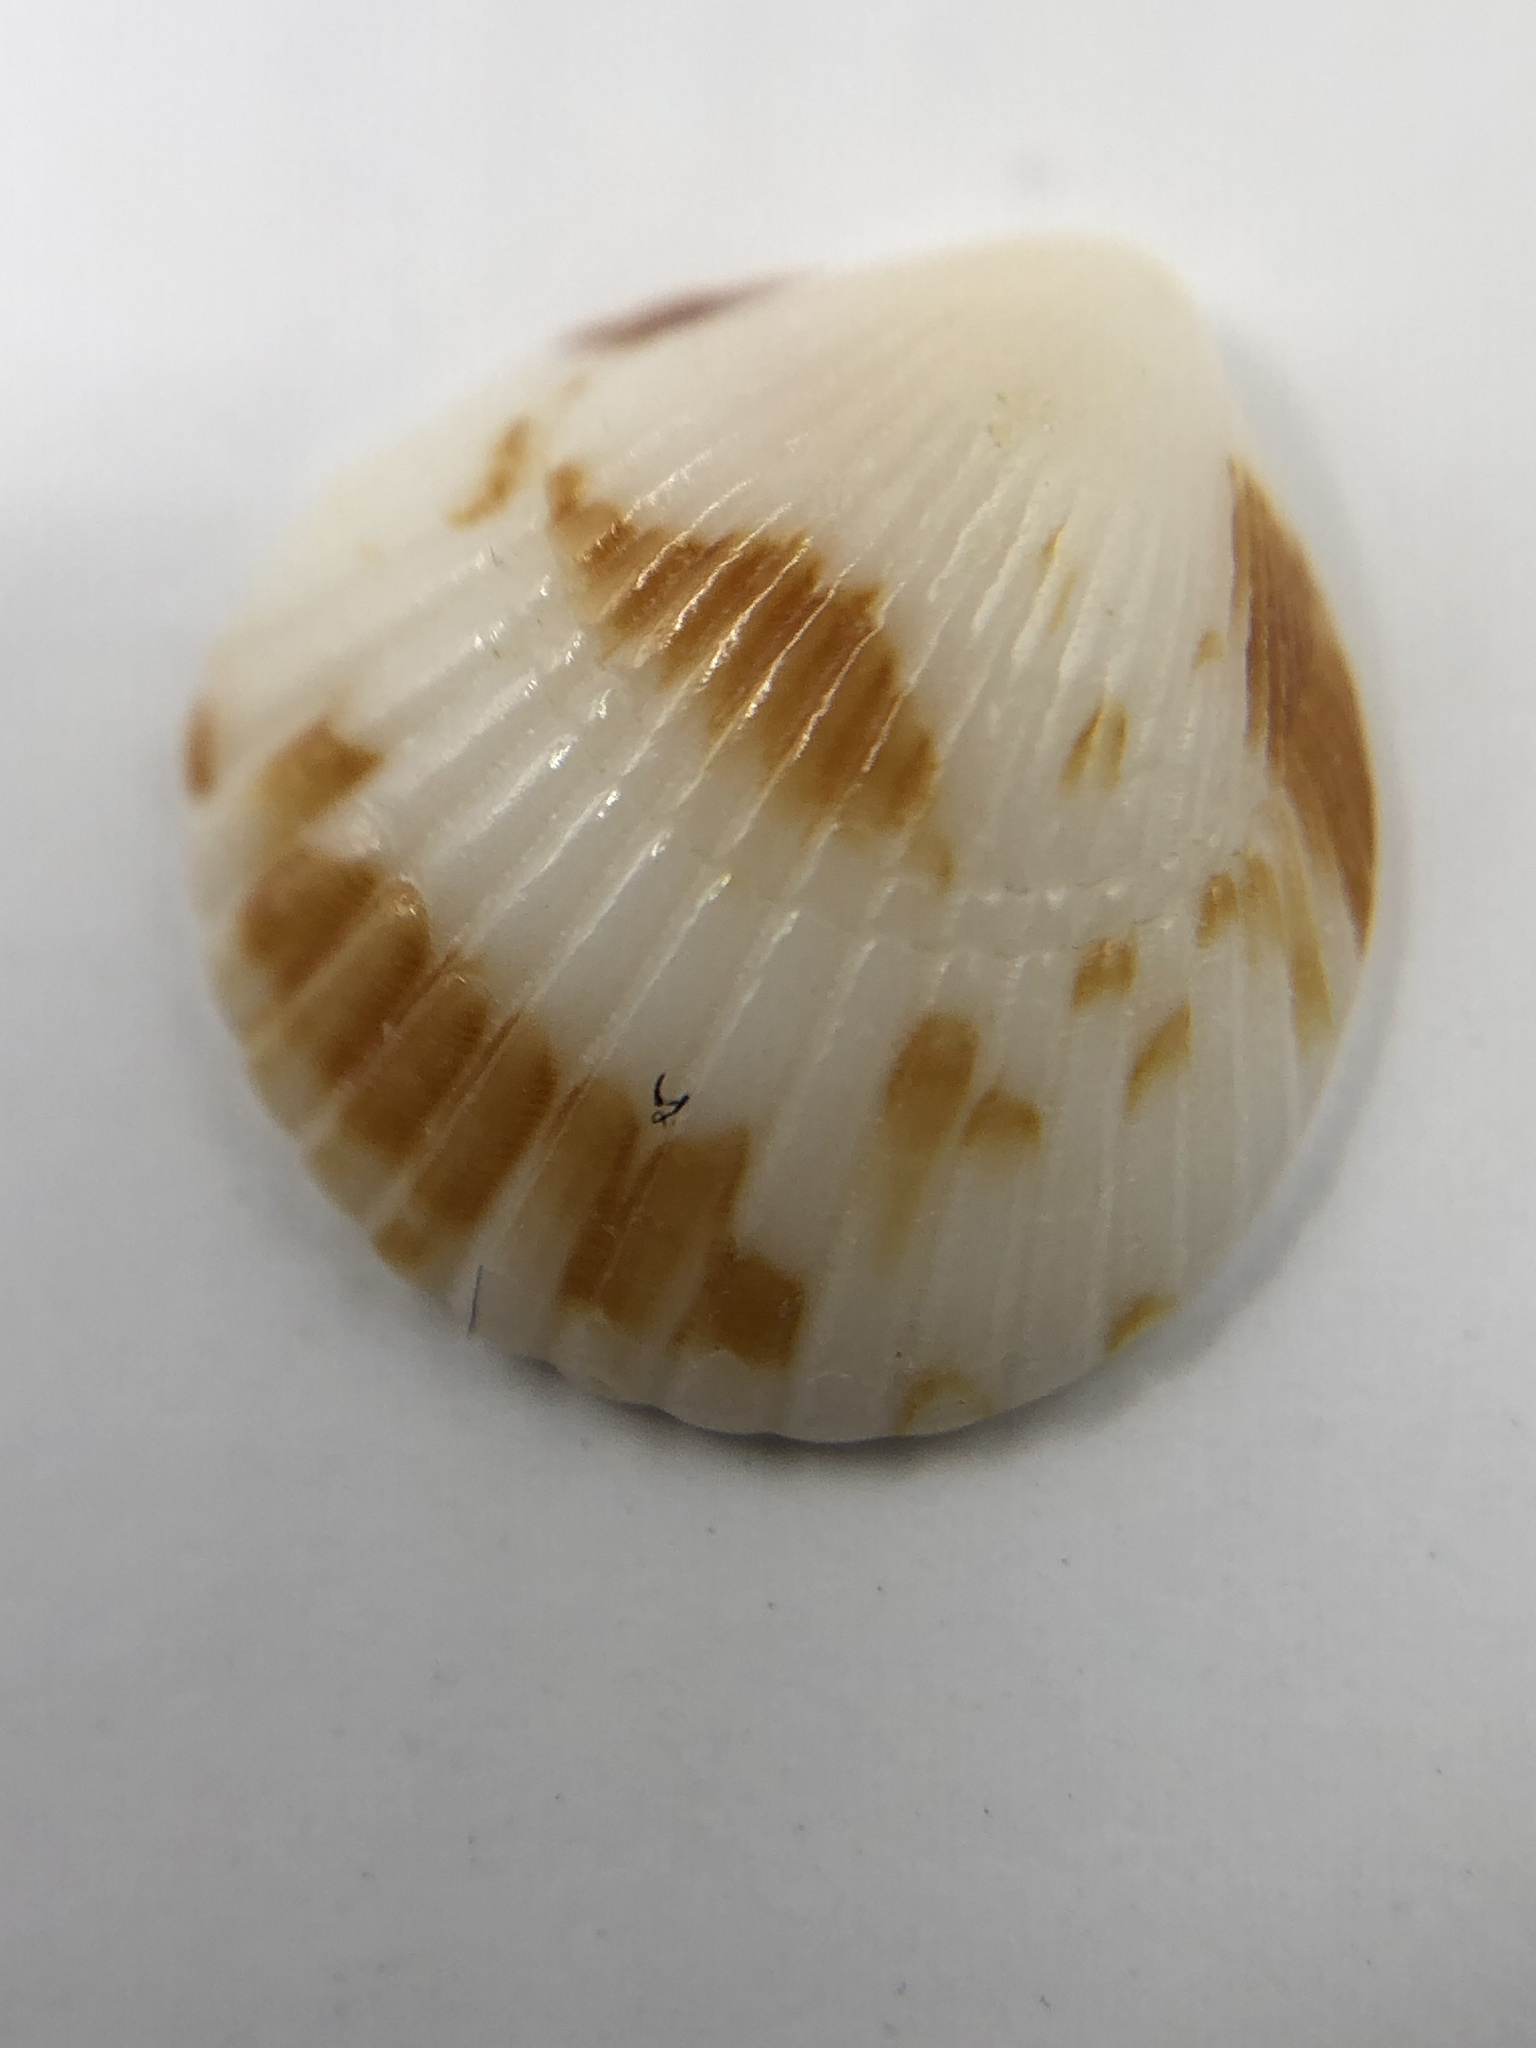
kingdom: Animalia
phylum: Mollusca
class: Bivalvia
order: Arcida
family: Glycymerididae
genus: Tucetona
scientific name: Tucetona pectinata
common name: Comb bittersweet
